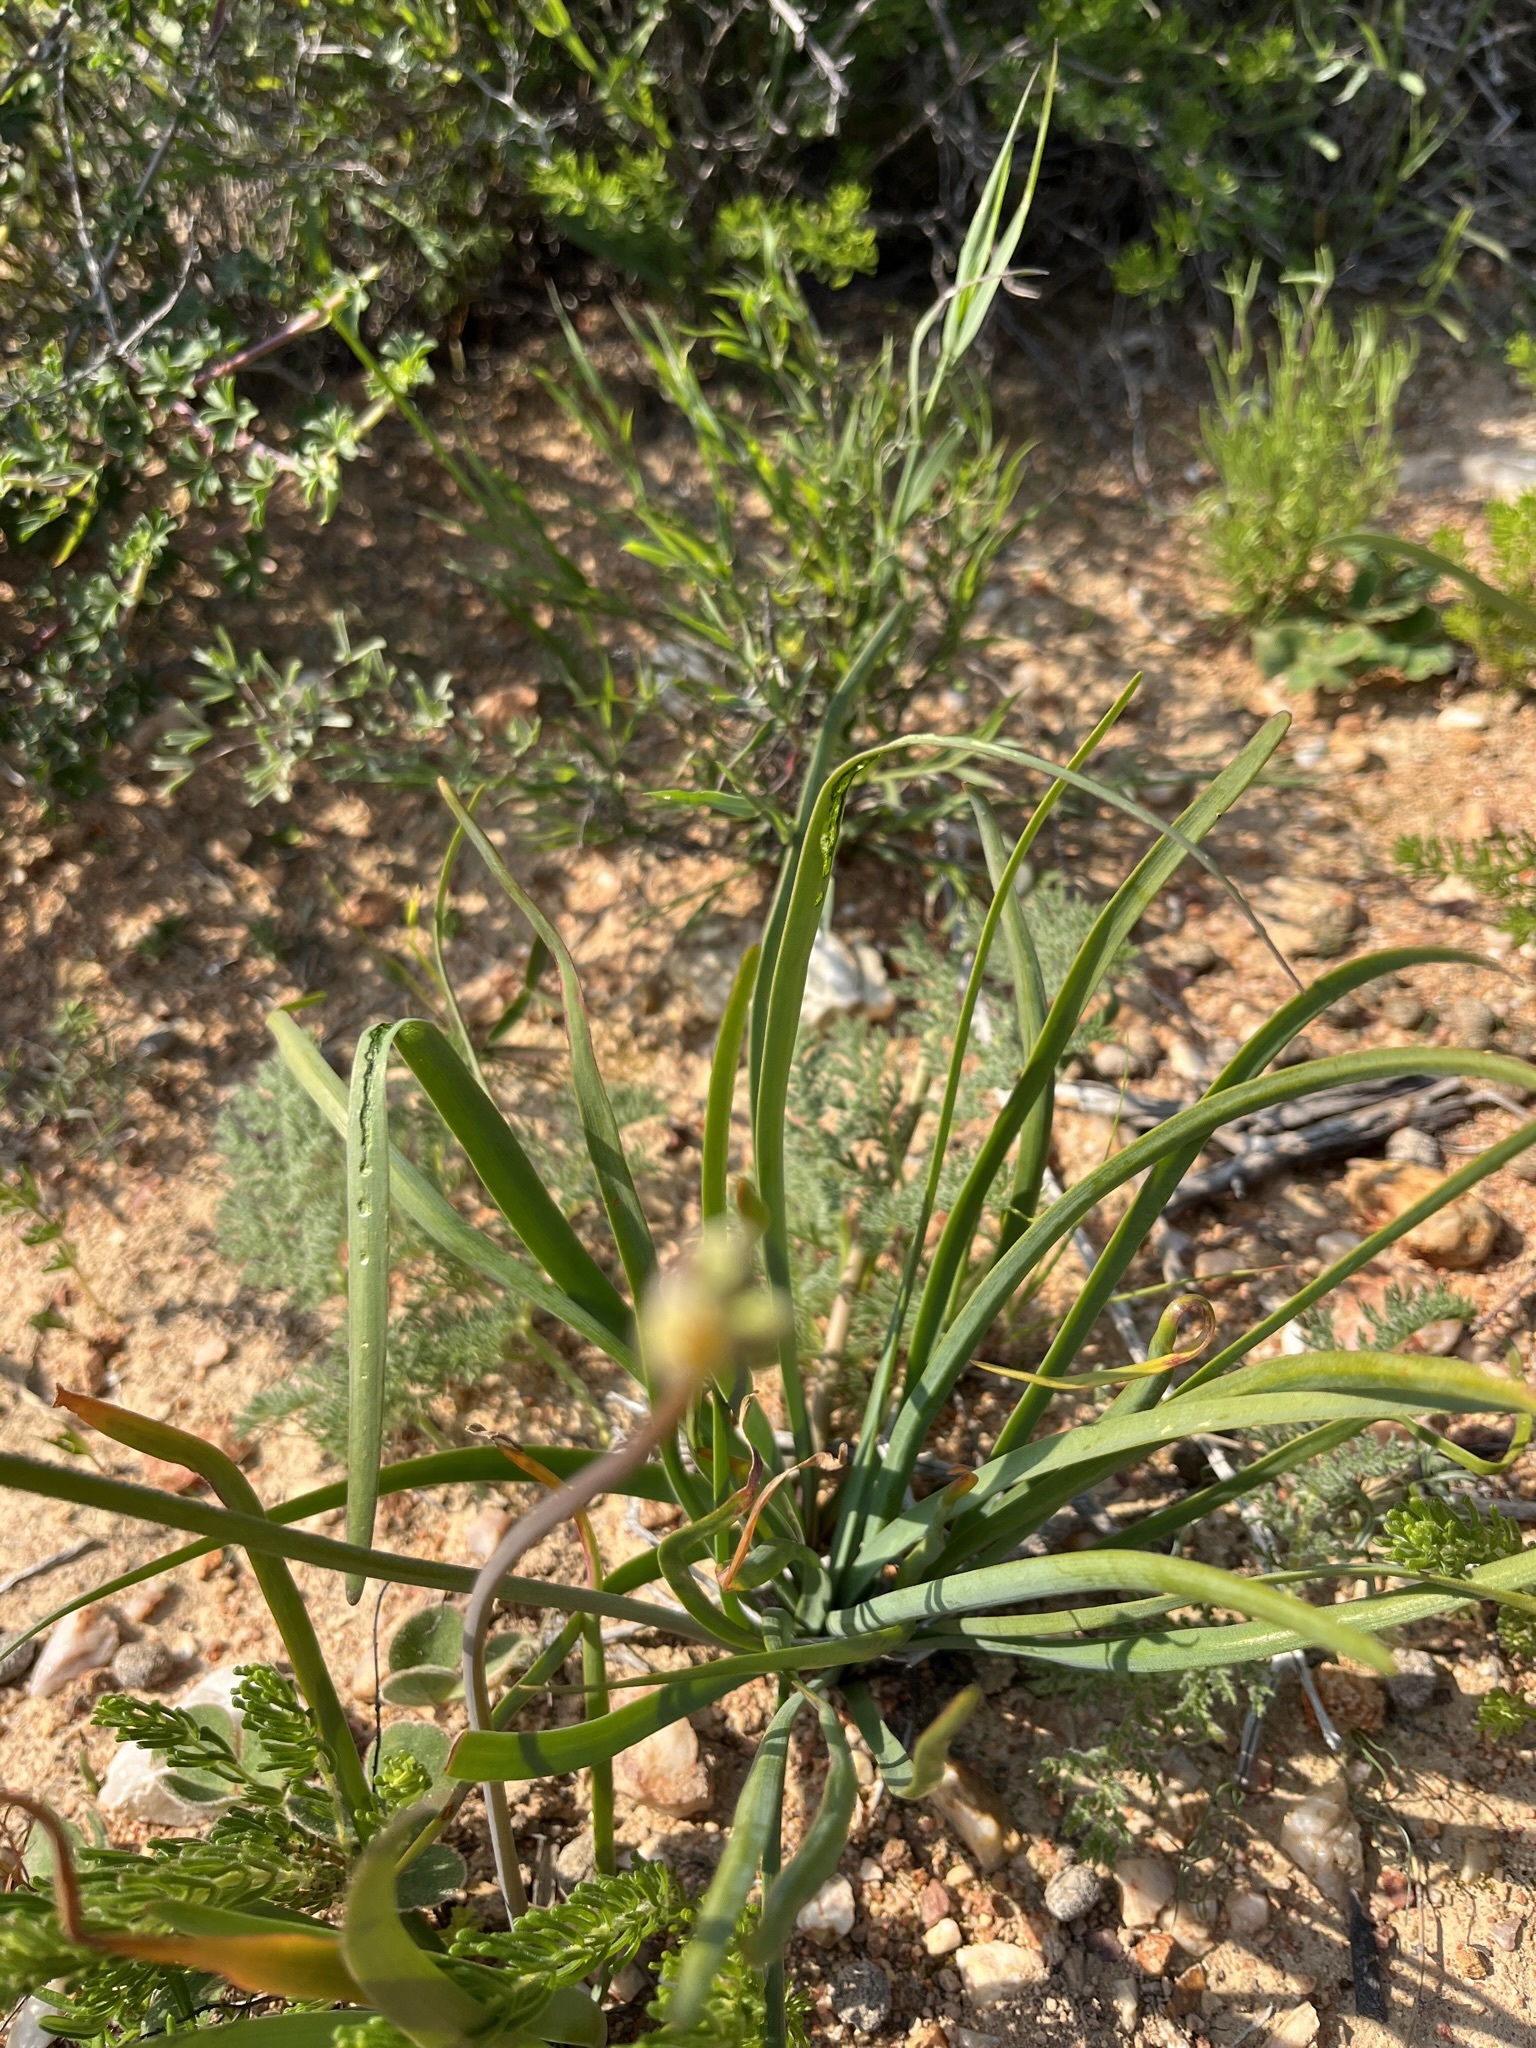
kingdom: Plantae
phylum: Tracheophyta
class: Liliopsida
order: Asparagales
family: Amaryllidaceae
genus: Tulbaghia
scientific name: Tulbaghia dregeana
